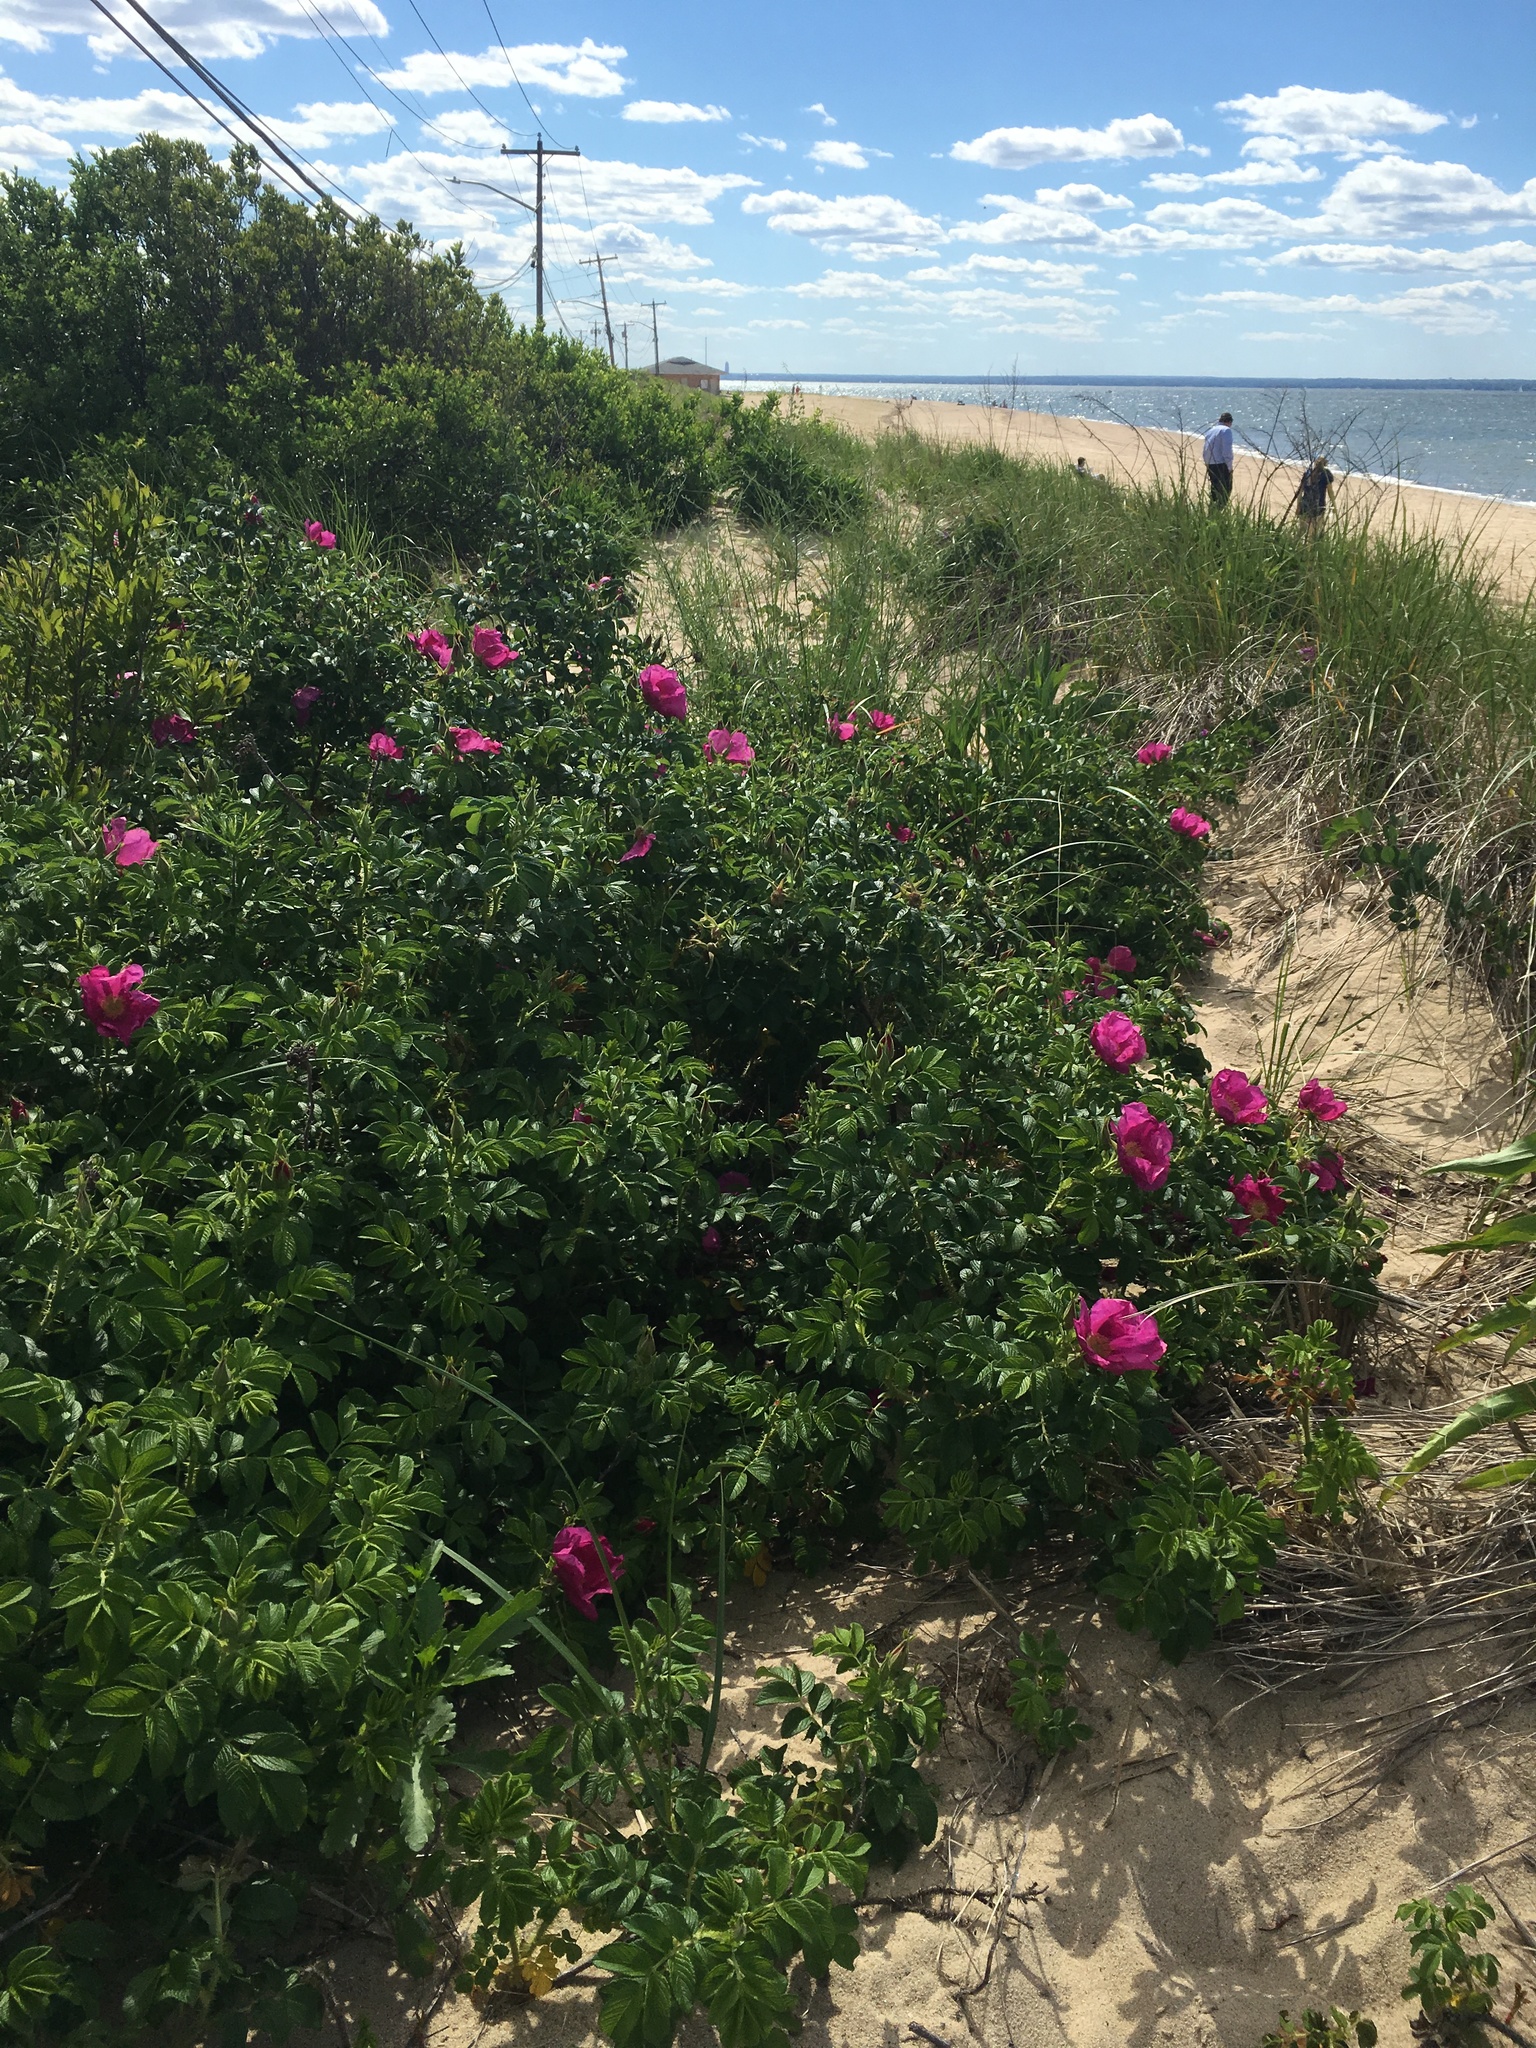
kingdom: Plantae
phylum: Tracheophyta
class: Magnoliopsida
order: Rosales
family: Rosaceae
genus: Rosa
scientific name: Rosa rugosa
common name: Japanese rose
